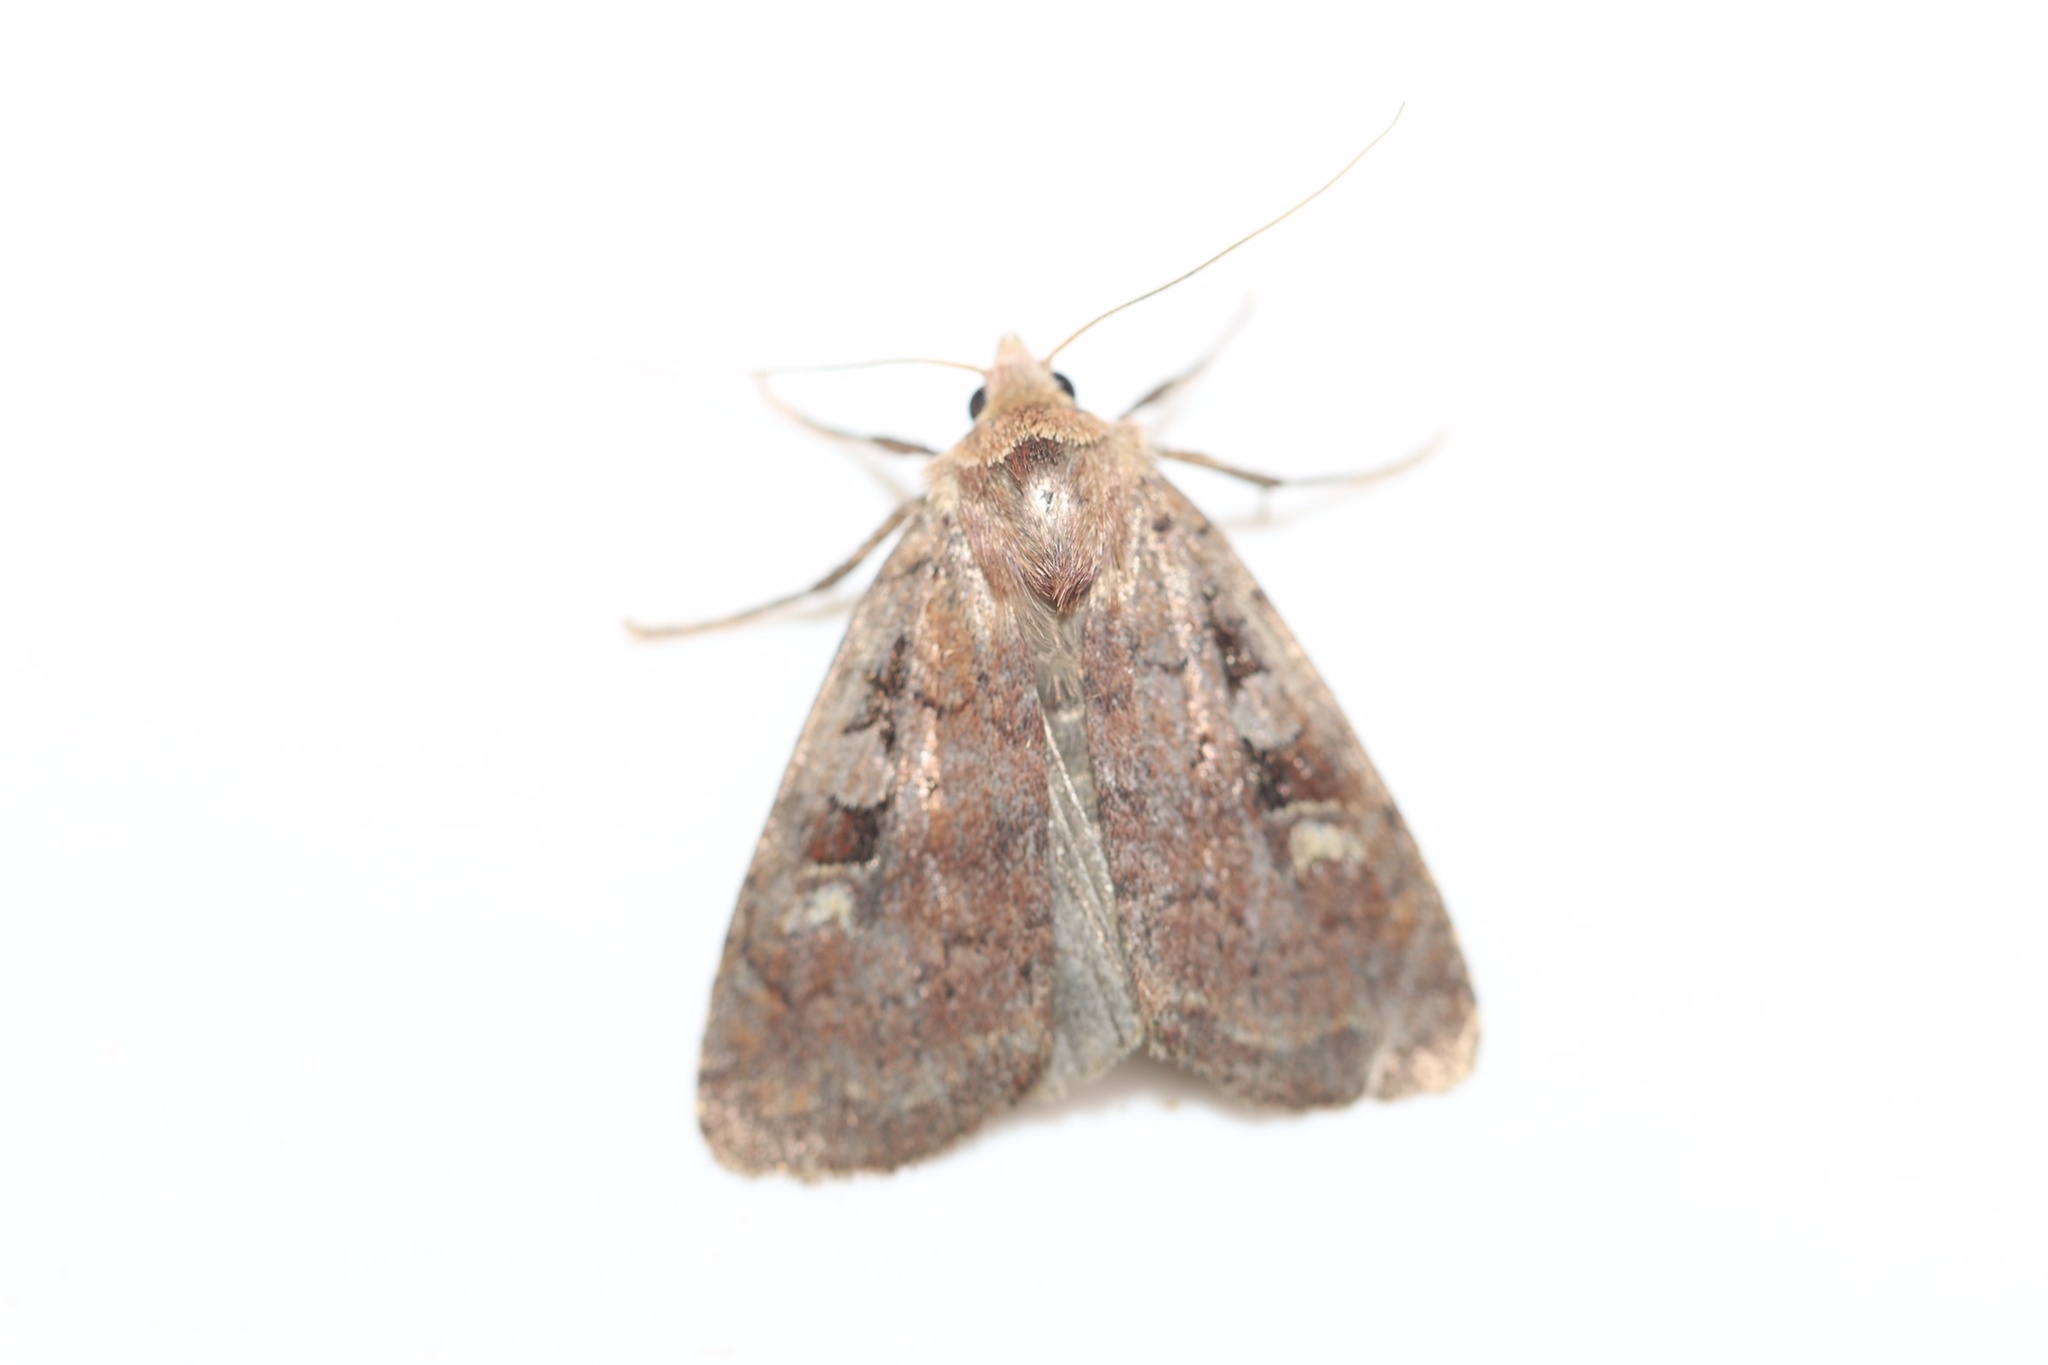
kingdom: Animalia
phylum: Arthropoda
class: Insecta
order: Lepidoptera
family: Noctuidae
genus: Diarsia
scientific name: Diarsia rosaria
